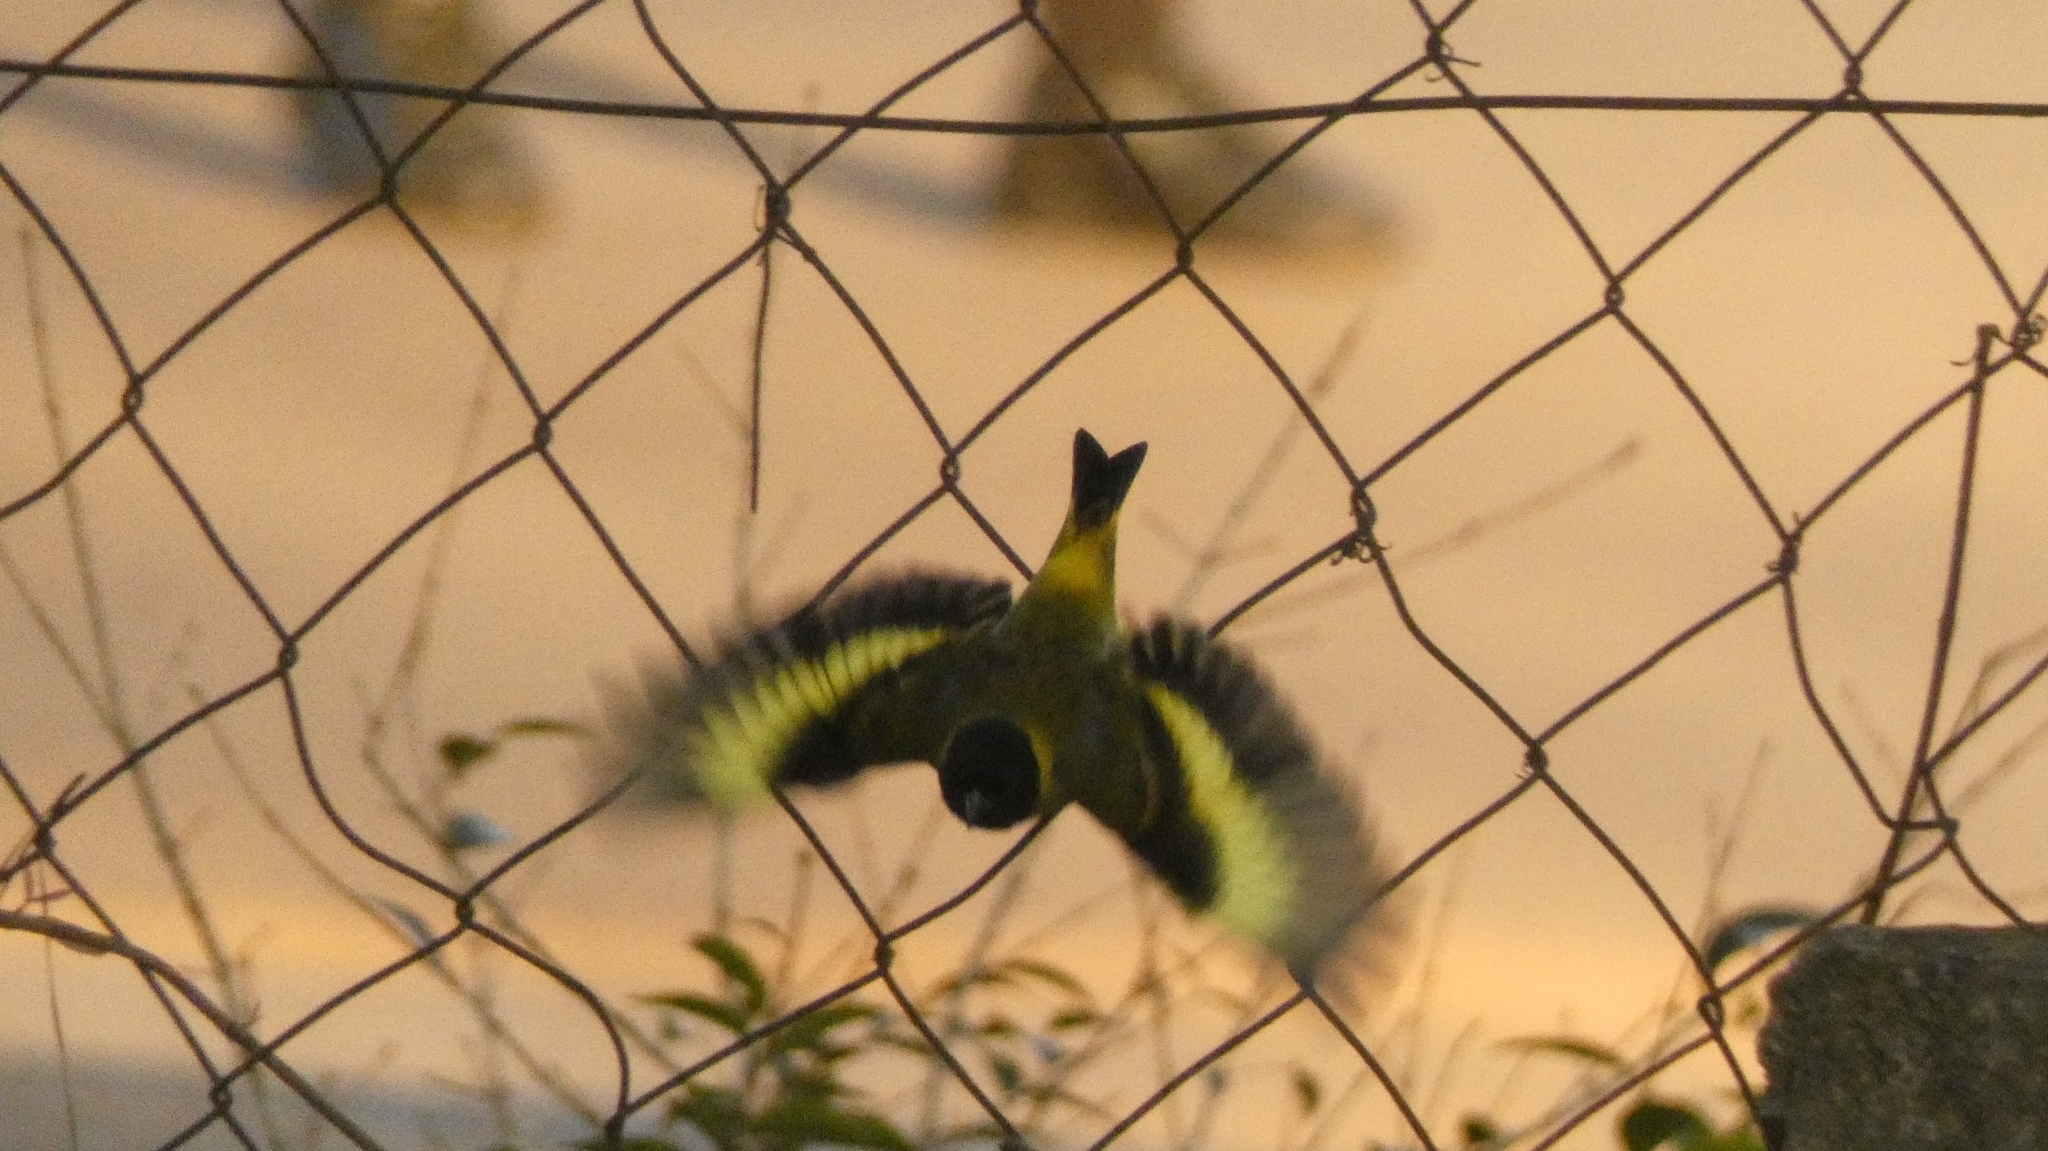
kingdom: Animalia
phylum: Chordata
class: Aves
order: Passeriformes
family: Fringillidae
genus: Spinus
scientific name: Spinus magellanicus
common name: Hooded siskin
